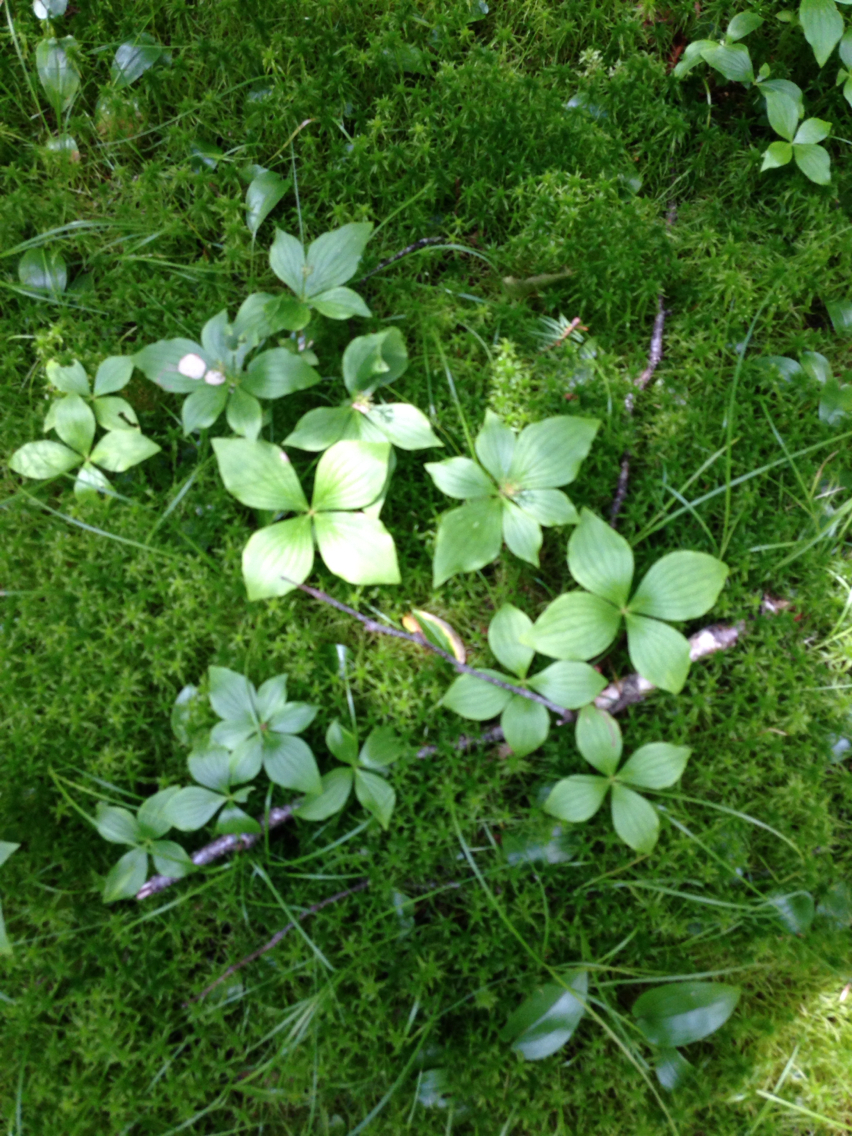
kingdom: Plantae
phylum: Tracheophyta
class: Magnoliopsida
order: Cornales
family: Cornaceae
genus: Cornus
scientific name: Cornus canadensis
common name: Creeping dogwood
